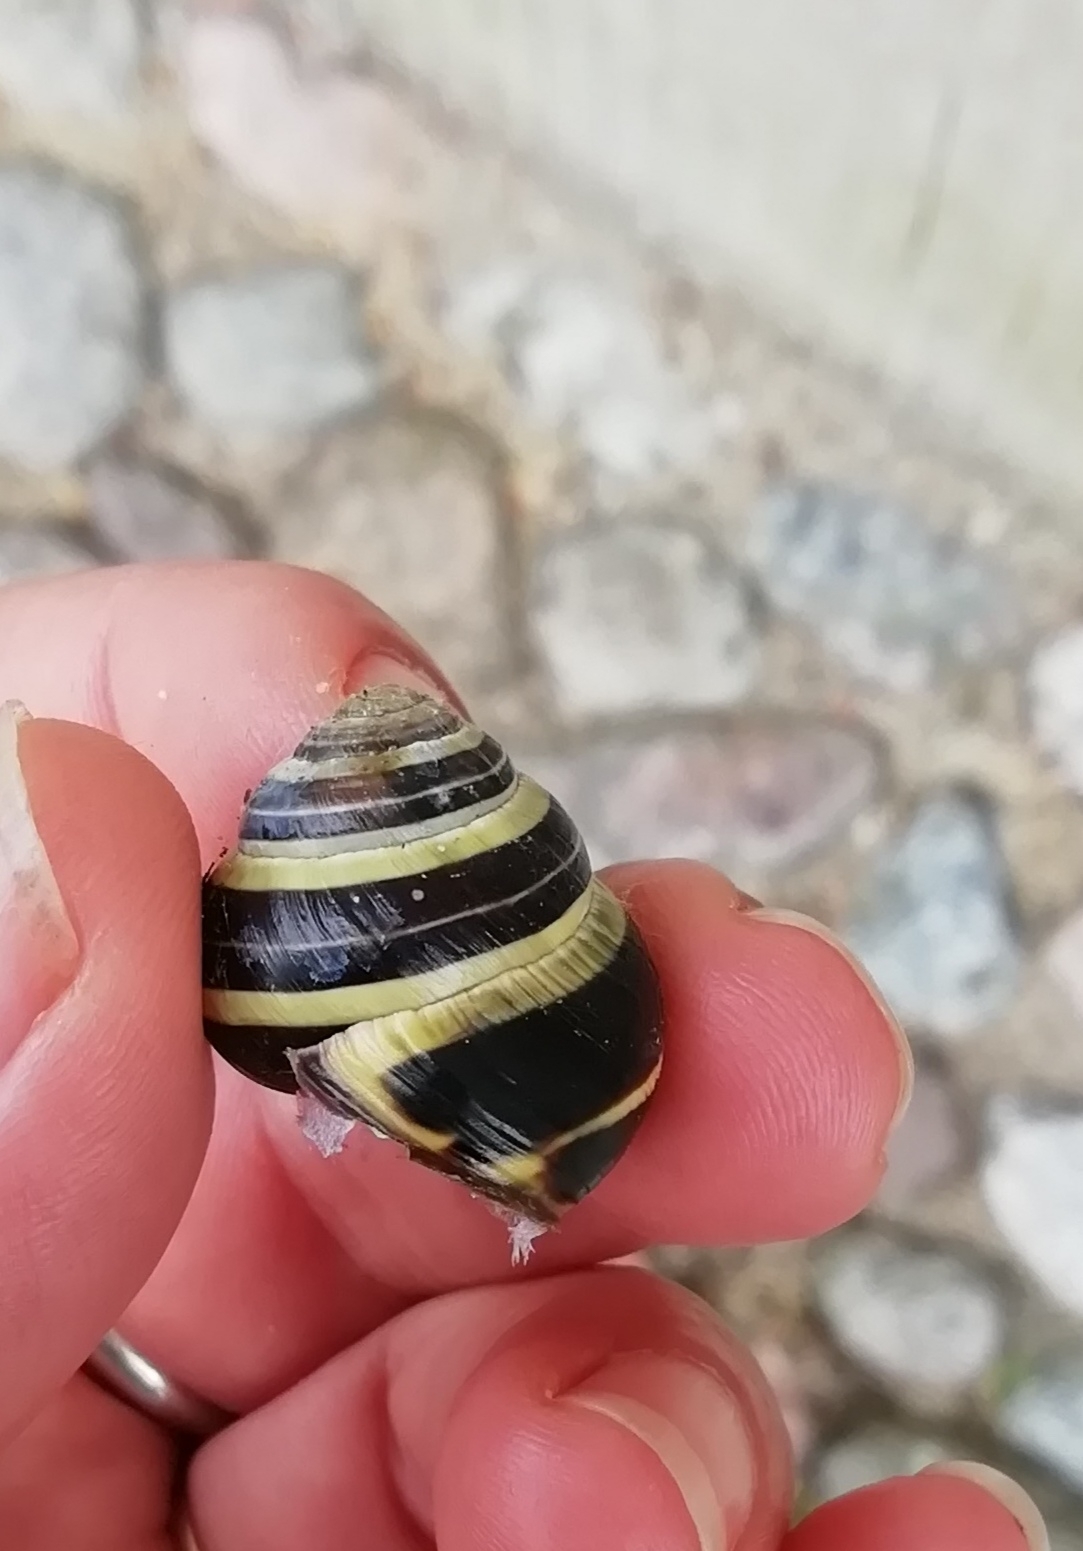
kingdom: Animalia
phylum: Mollusca
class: Gastropoda
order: Stylommatophora
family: Helicidae
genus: Cepaea
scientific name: Cepaea nemoralis
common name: Grovesnail
